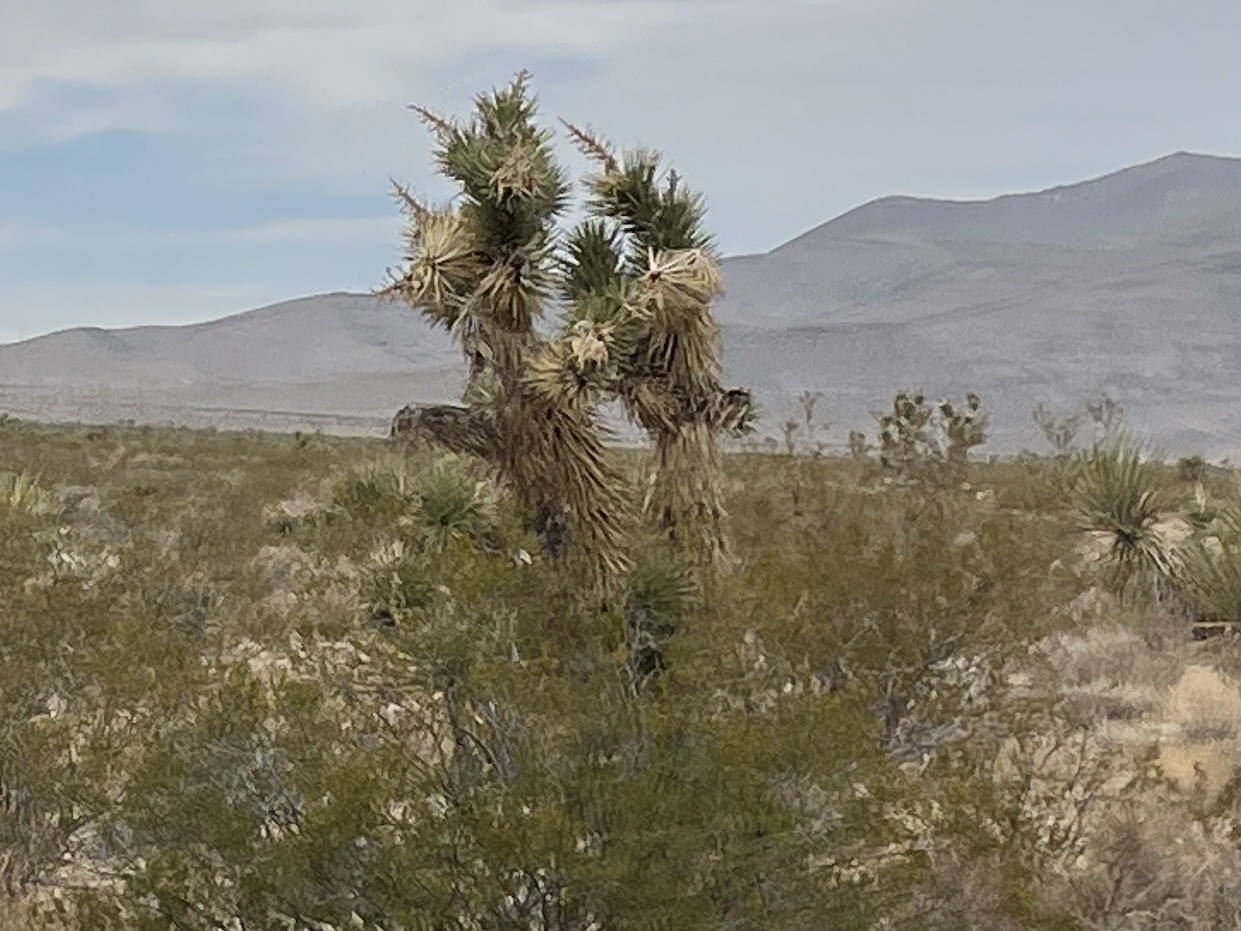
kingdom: Plantae
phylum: Tracheophyta
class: Liliopsida
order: Asparagales
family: Asparagaceae
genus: Yucca
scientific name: Yucca brevifolia
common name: Joshua tree
